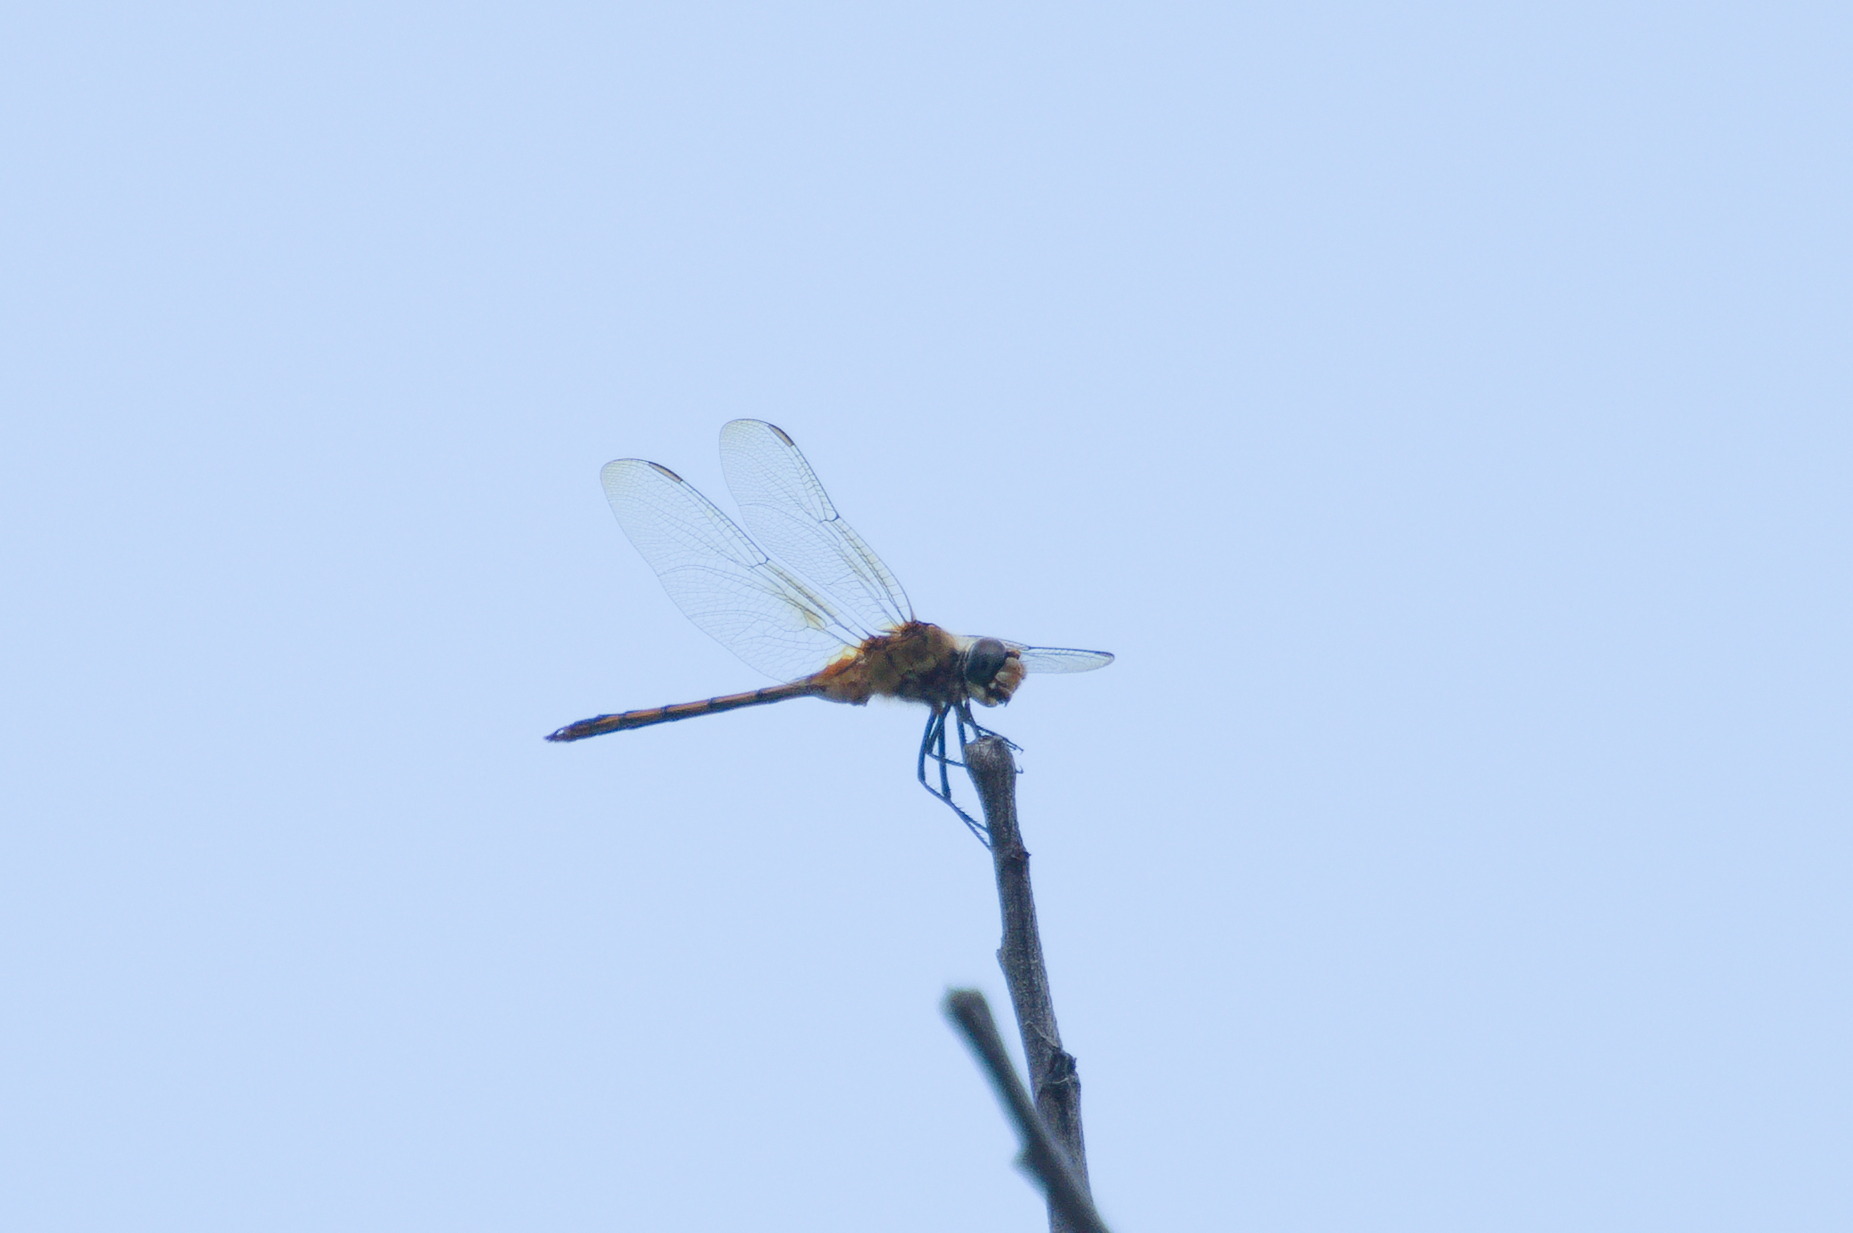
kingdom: Animalia
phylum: Arthropoda
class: Insecta
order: Odonata
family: Libellulidae
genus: Brachymesia
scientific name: Brachymesia herbida
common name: Tawny pennant
